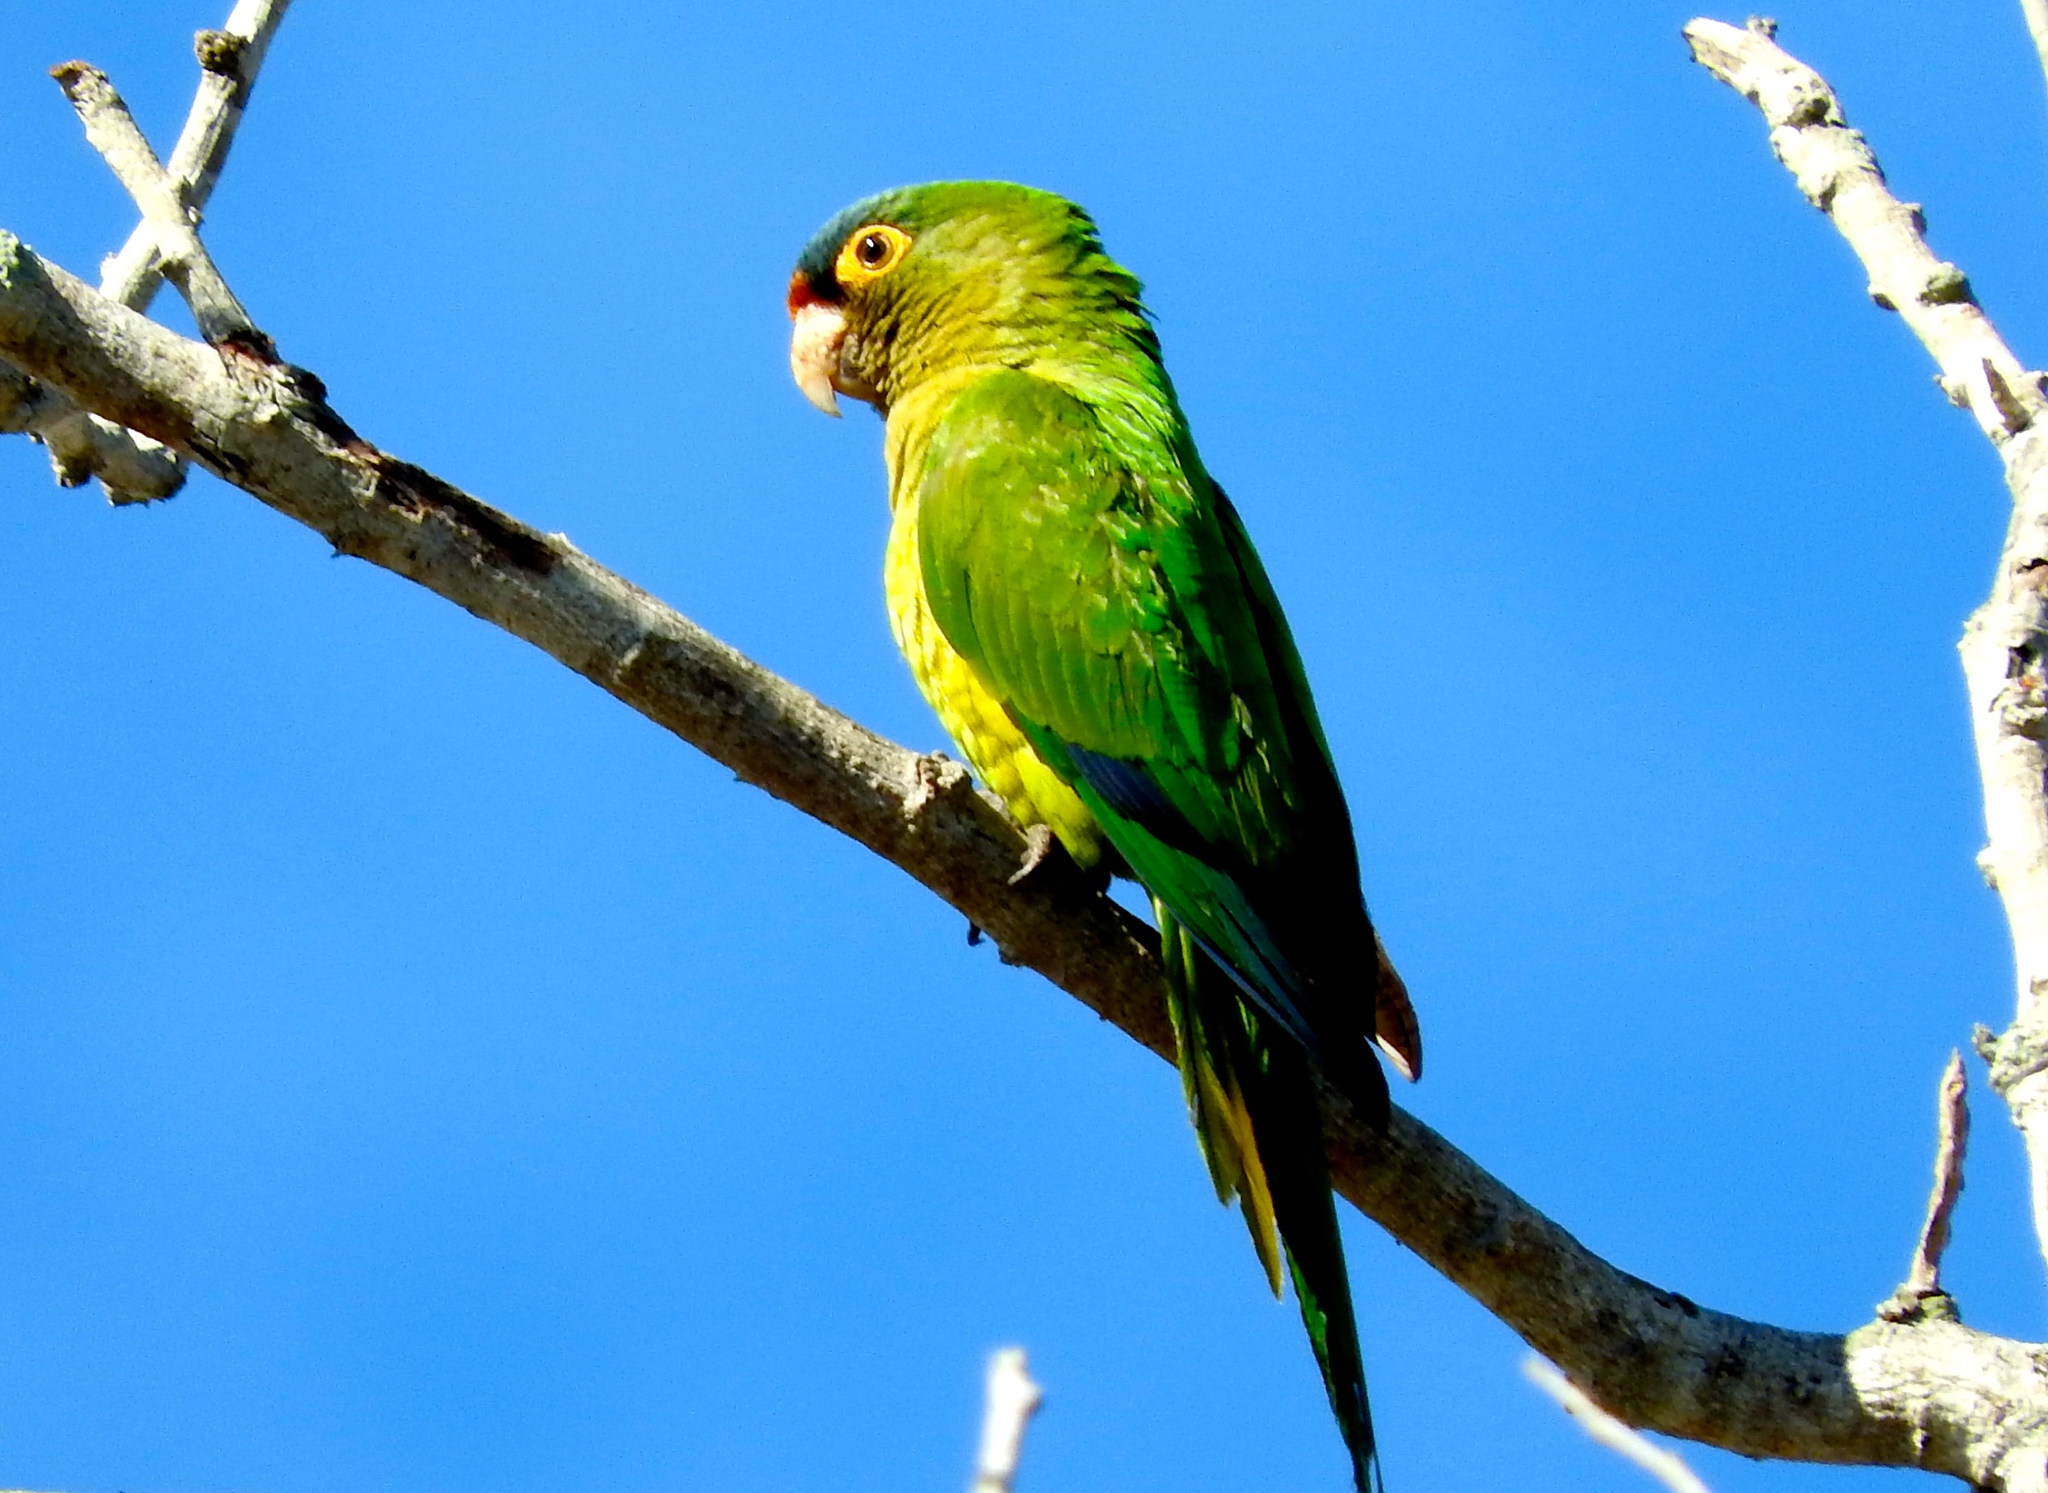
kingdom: Animalia
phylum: Chordata
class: Aves
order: Psittaciformes
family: Psittacidae
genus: Aratinga
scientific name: Aratinga canicularis
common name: Orange-fronted parakeet
